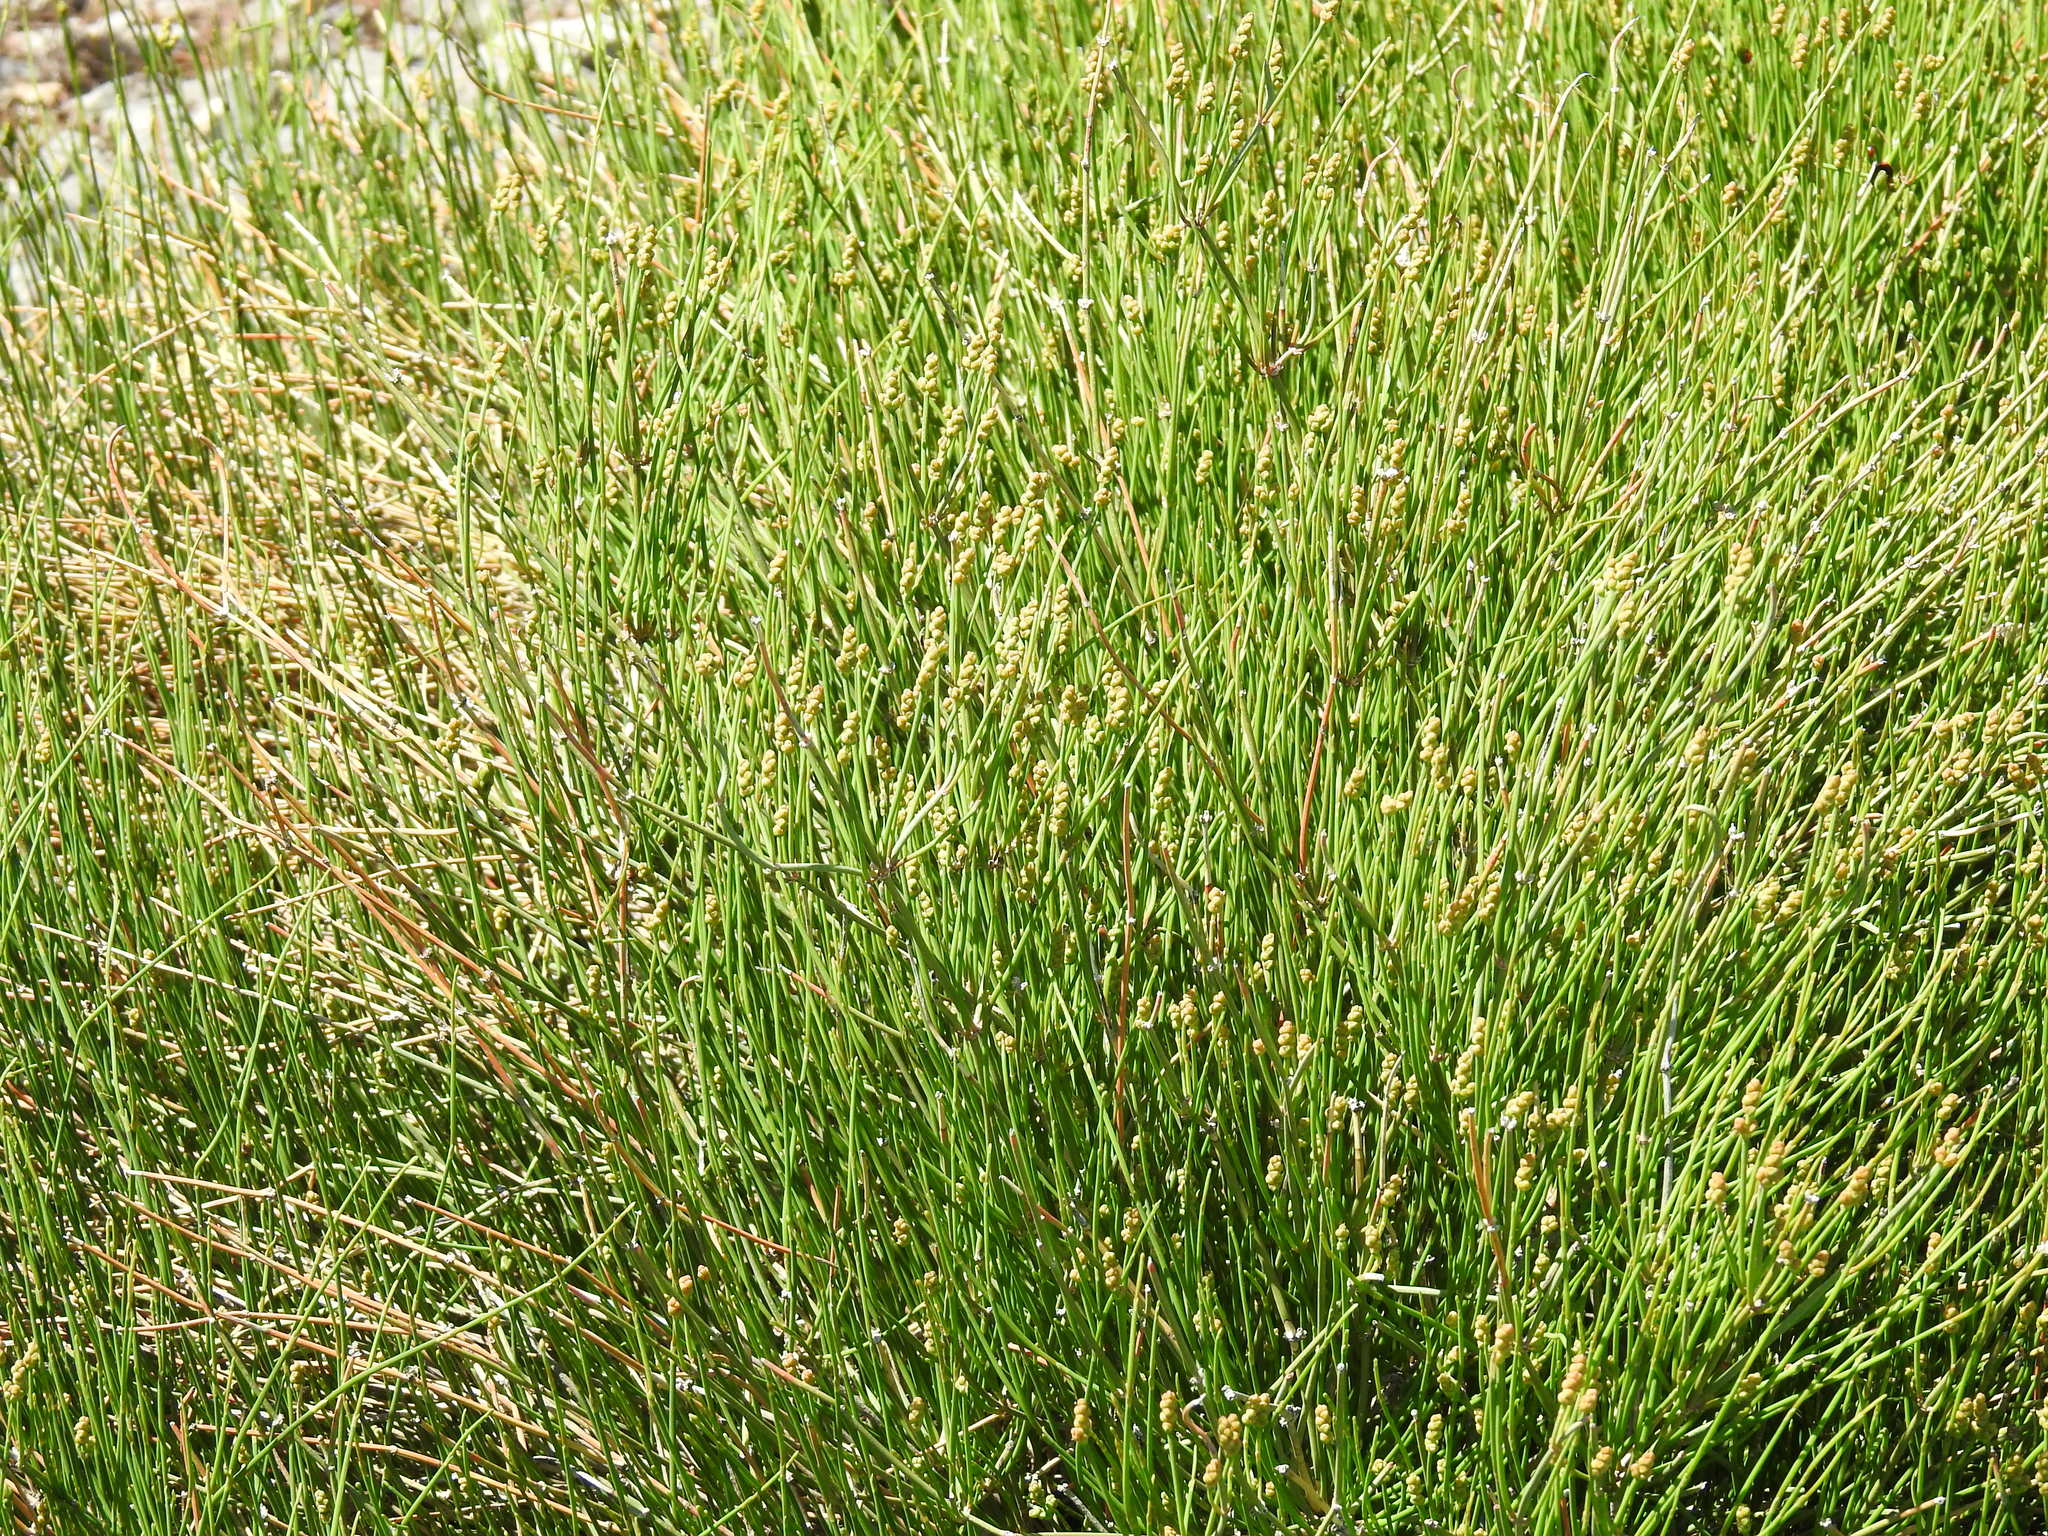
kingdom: Plantae
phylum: Tracheophyta
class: Gnetopsida
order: Ephedrales
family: Ephedraceae
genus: Ephedra
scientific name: Ephedra distachya
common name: Sea grape
